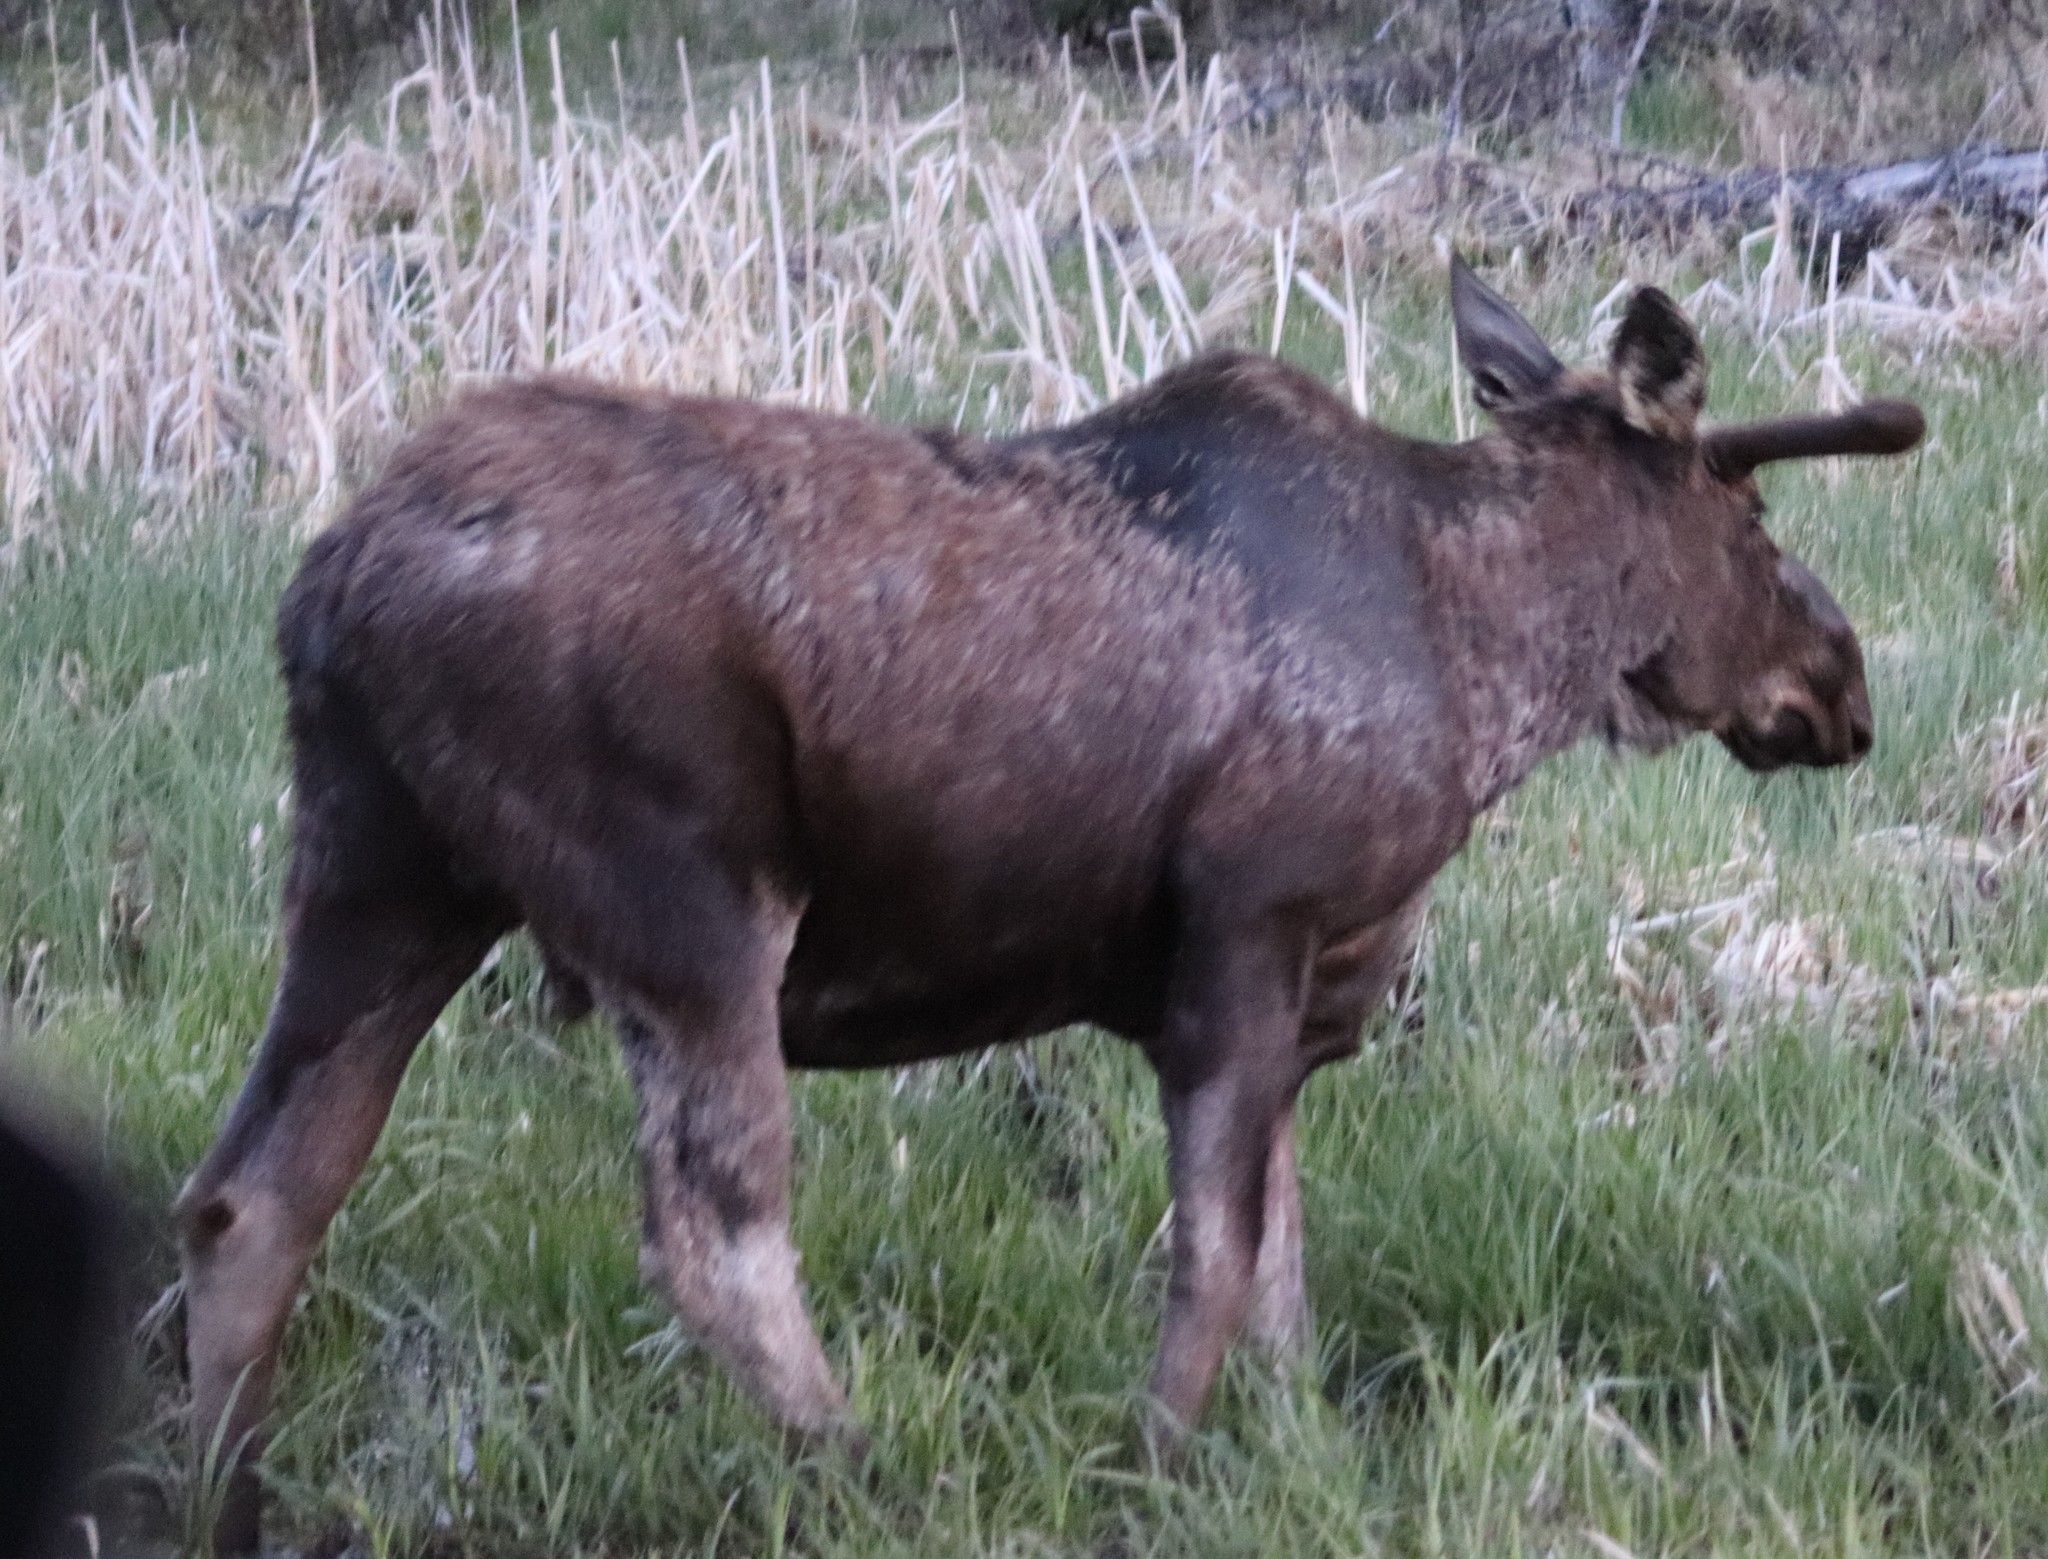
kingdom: Animalia
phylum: Chordata
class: Mammalia
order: Artiodactyla
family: Cervidae
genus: Alces
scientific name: Alces alces
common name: Moose
